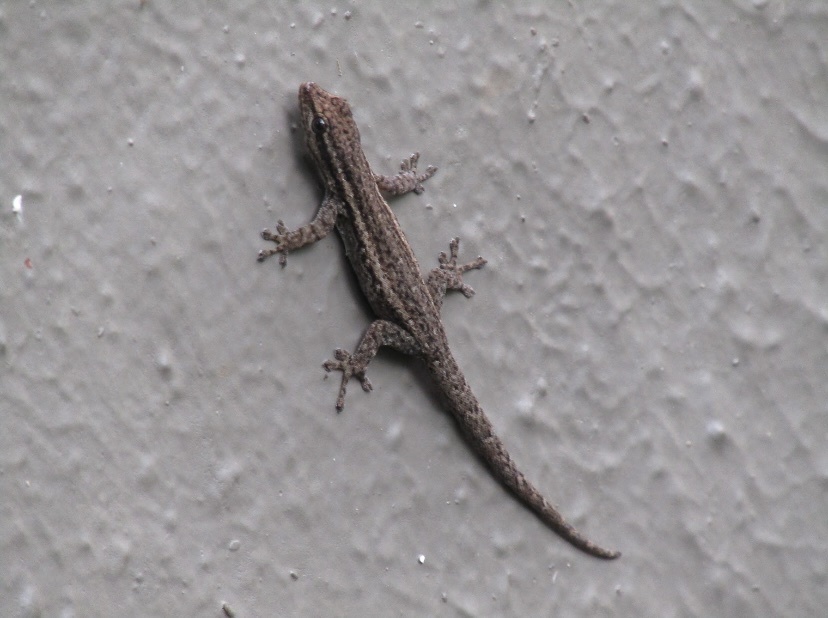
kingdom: Animalia
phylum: Chordata
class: Squamata
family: Gekkonidae
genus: Lygodactylus
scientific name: Lygodactylus capensis
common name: Cape dwarf gecko
